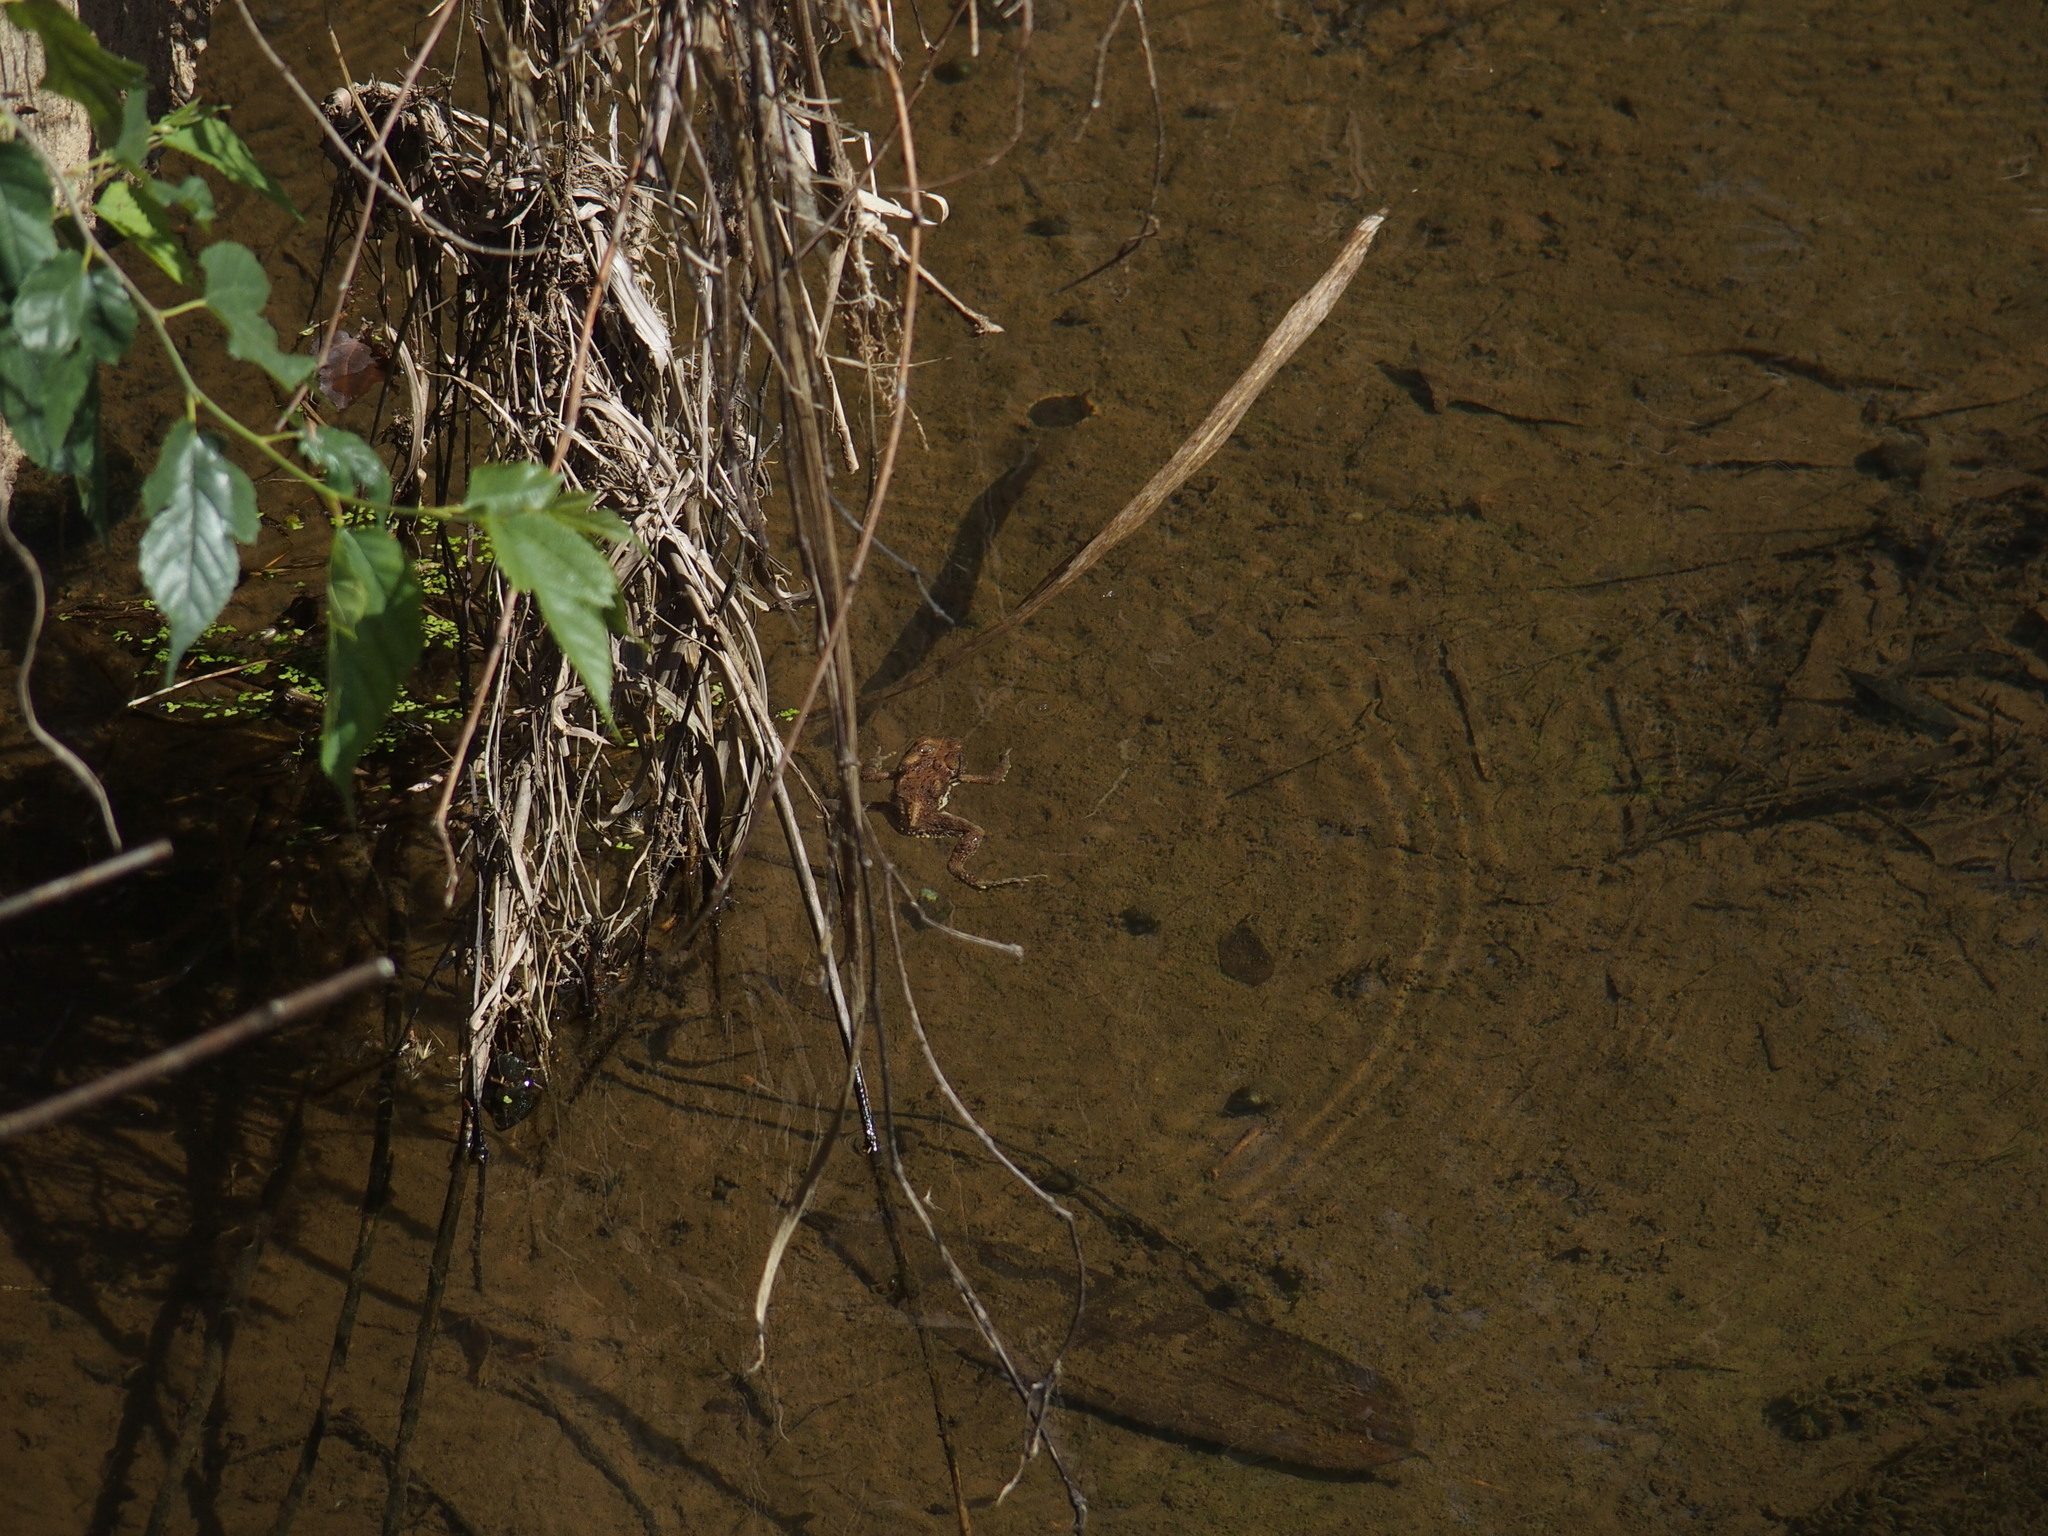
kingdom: Animalia
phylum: Chordata
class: Amphibia
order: Anura
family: Bufonidae
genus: Bufo
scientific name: Bufo bankorensis
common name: Bankor toad
